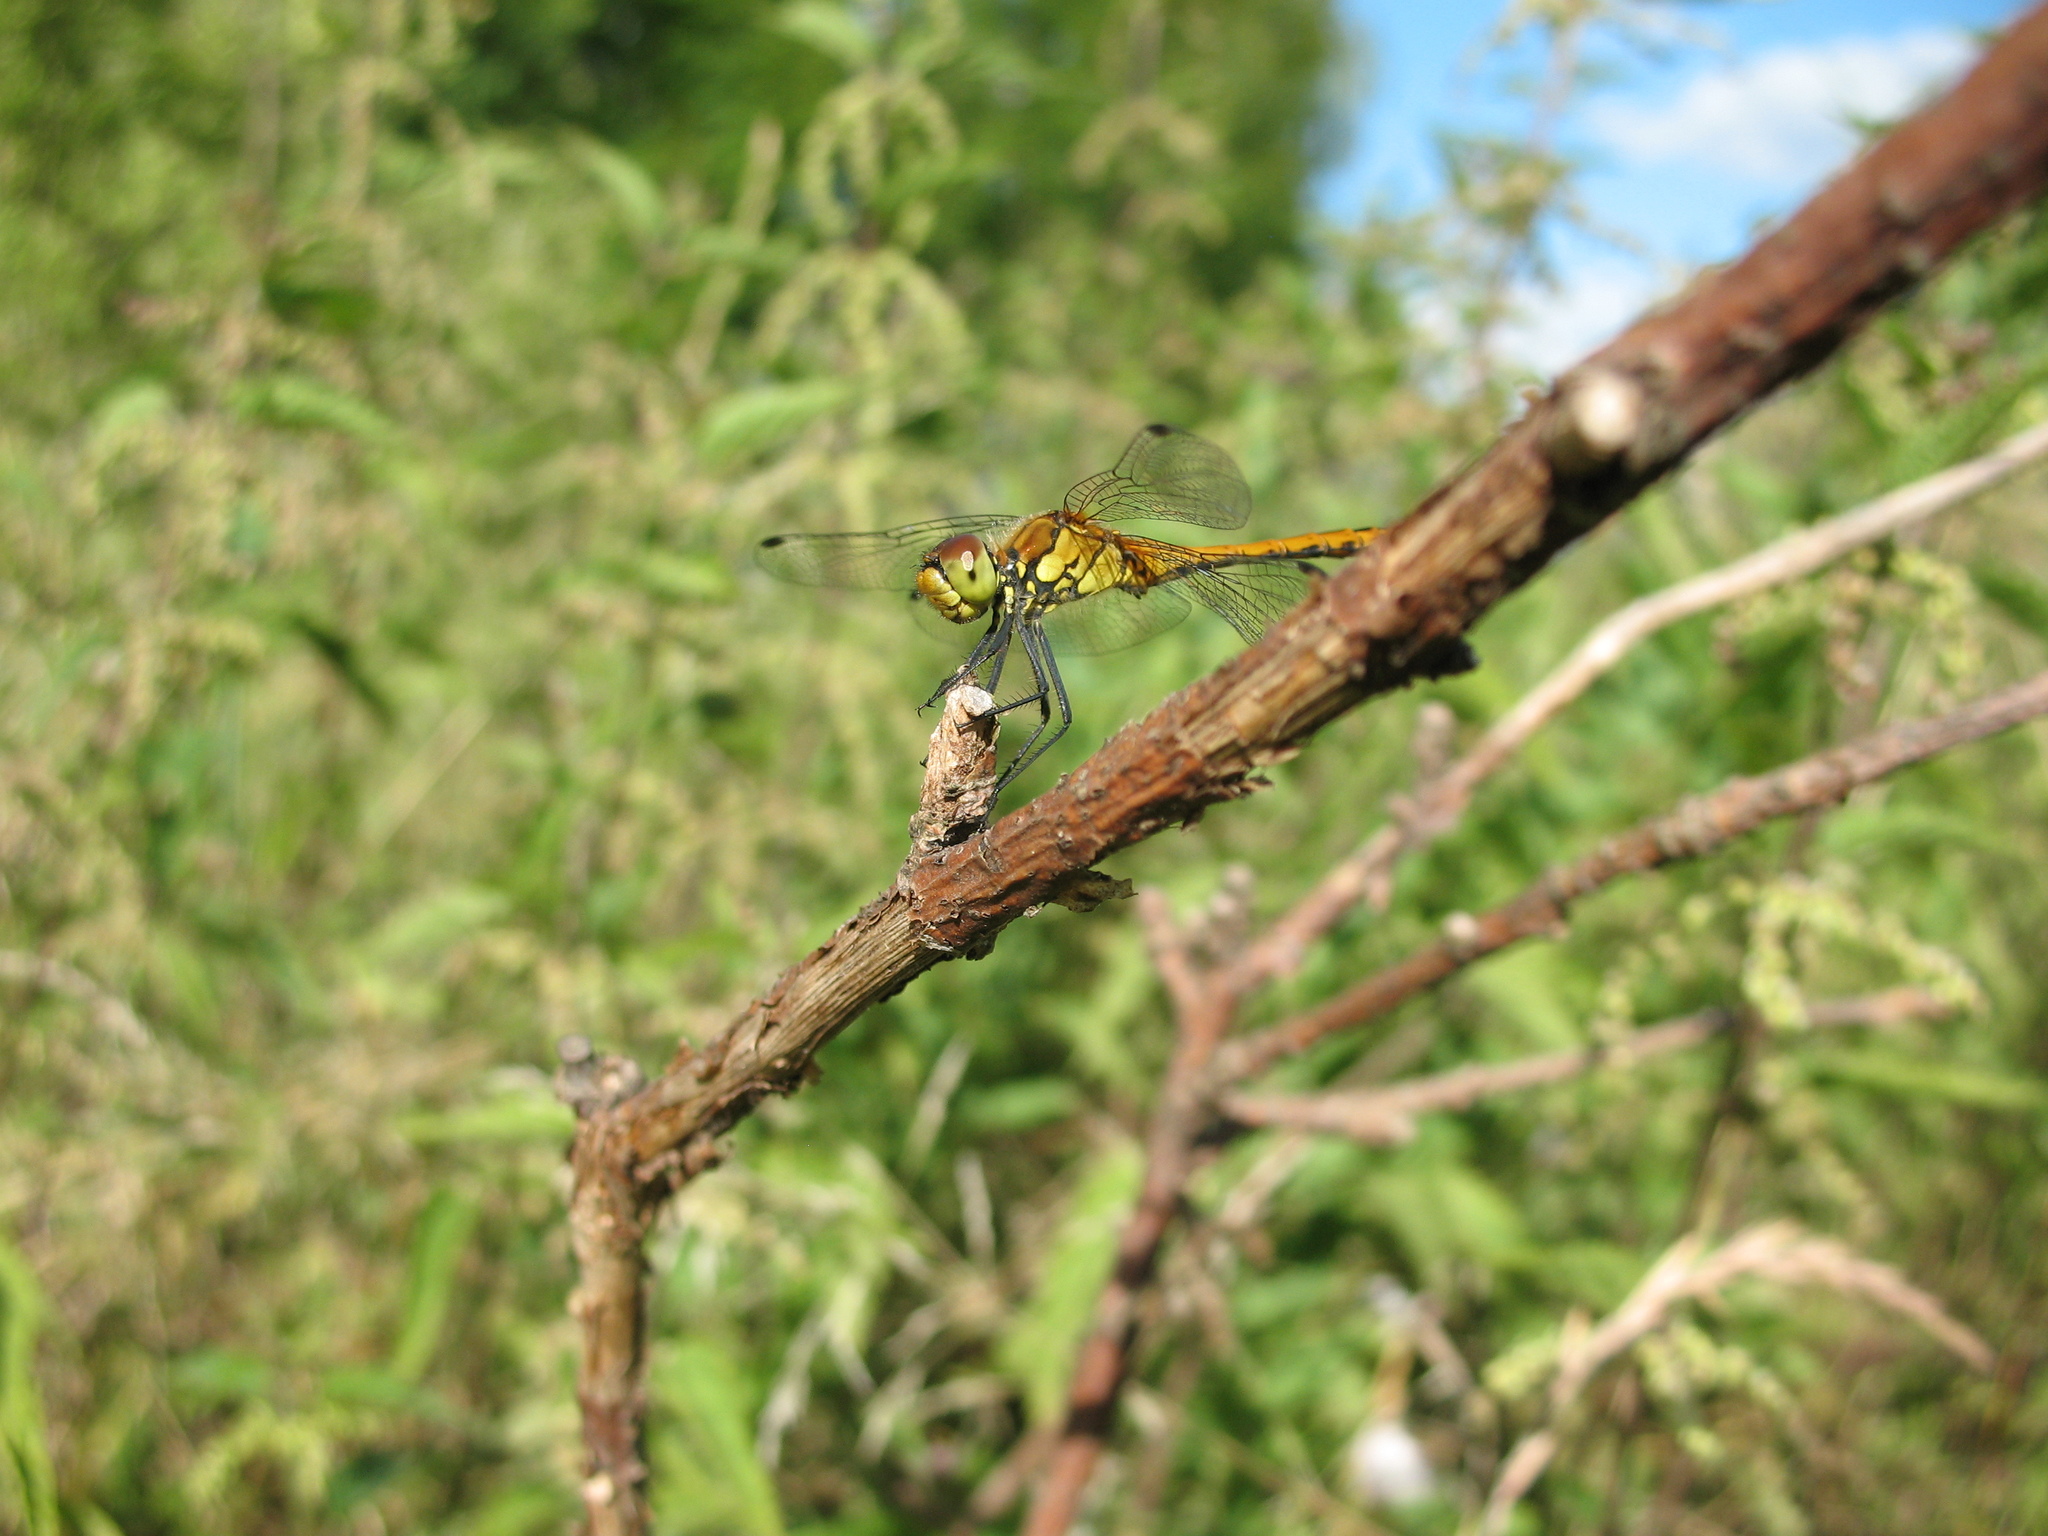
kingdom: Animalia
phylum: Arthropoda
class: Insecta
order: Odonata
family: Libellulidae
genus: Sympetrum
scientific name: Sympetrum sanguineum
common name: Ruddy darter
